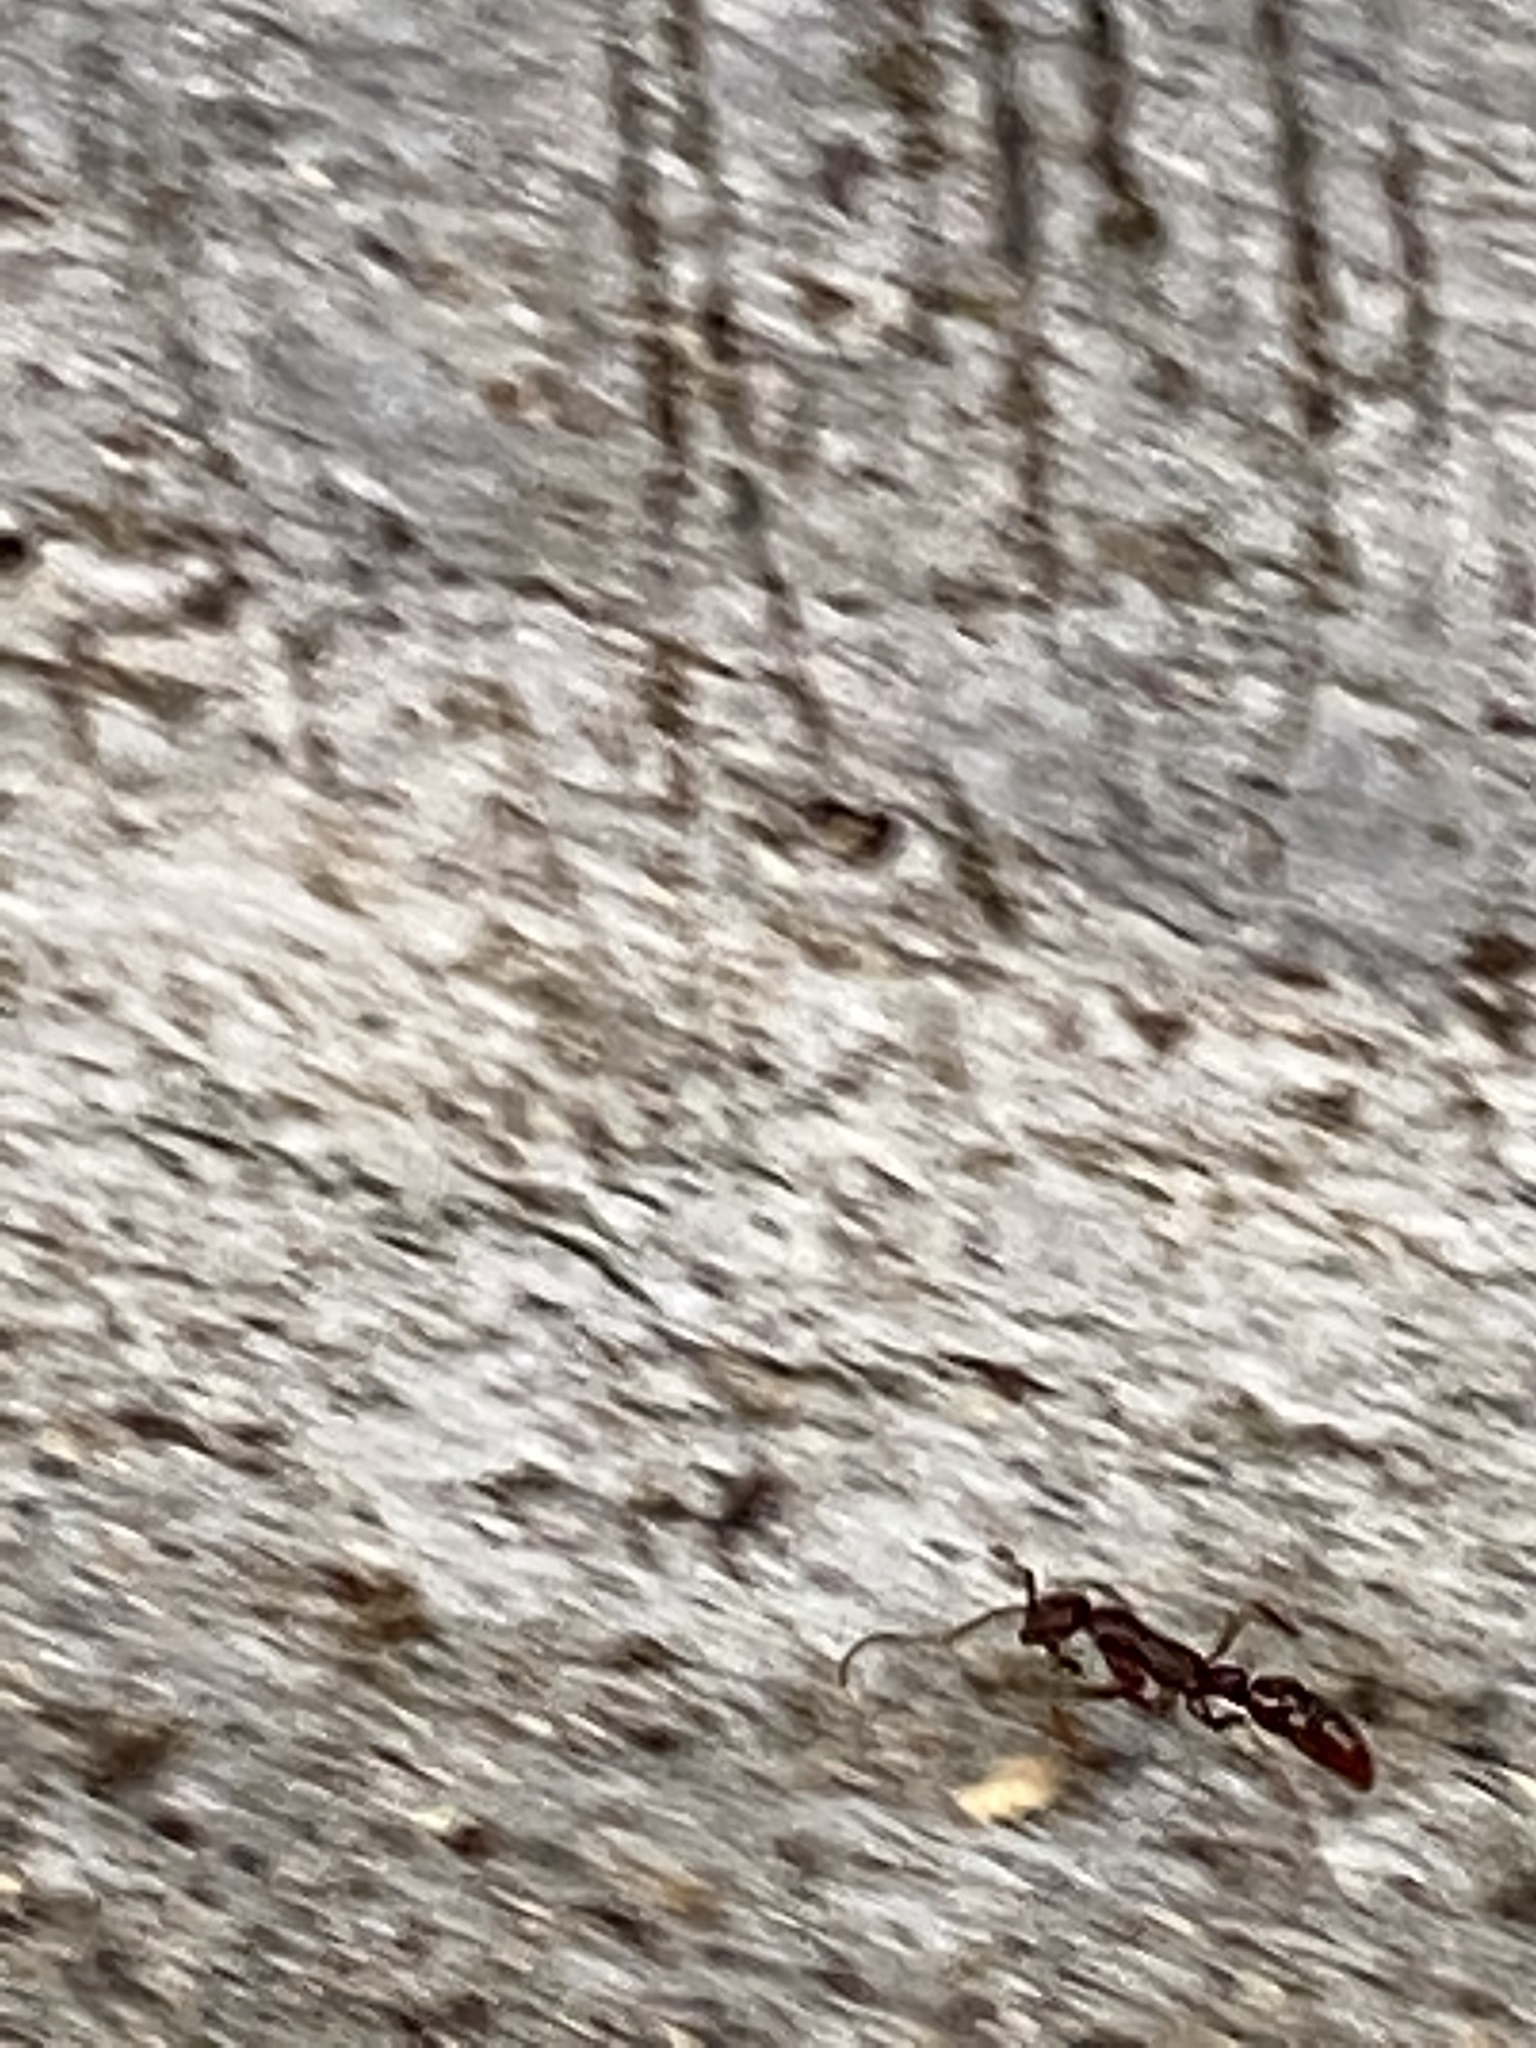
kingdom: Animalia
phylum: Arthropoda
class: Insecta
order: Hymenoptera
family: Formicidae
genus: Leptogenys
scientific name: Leptogenys elongata
